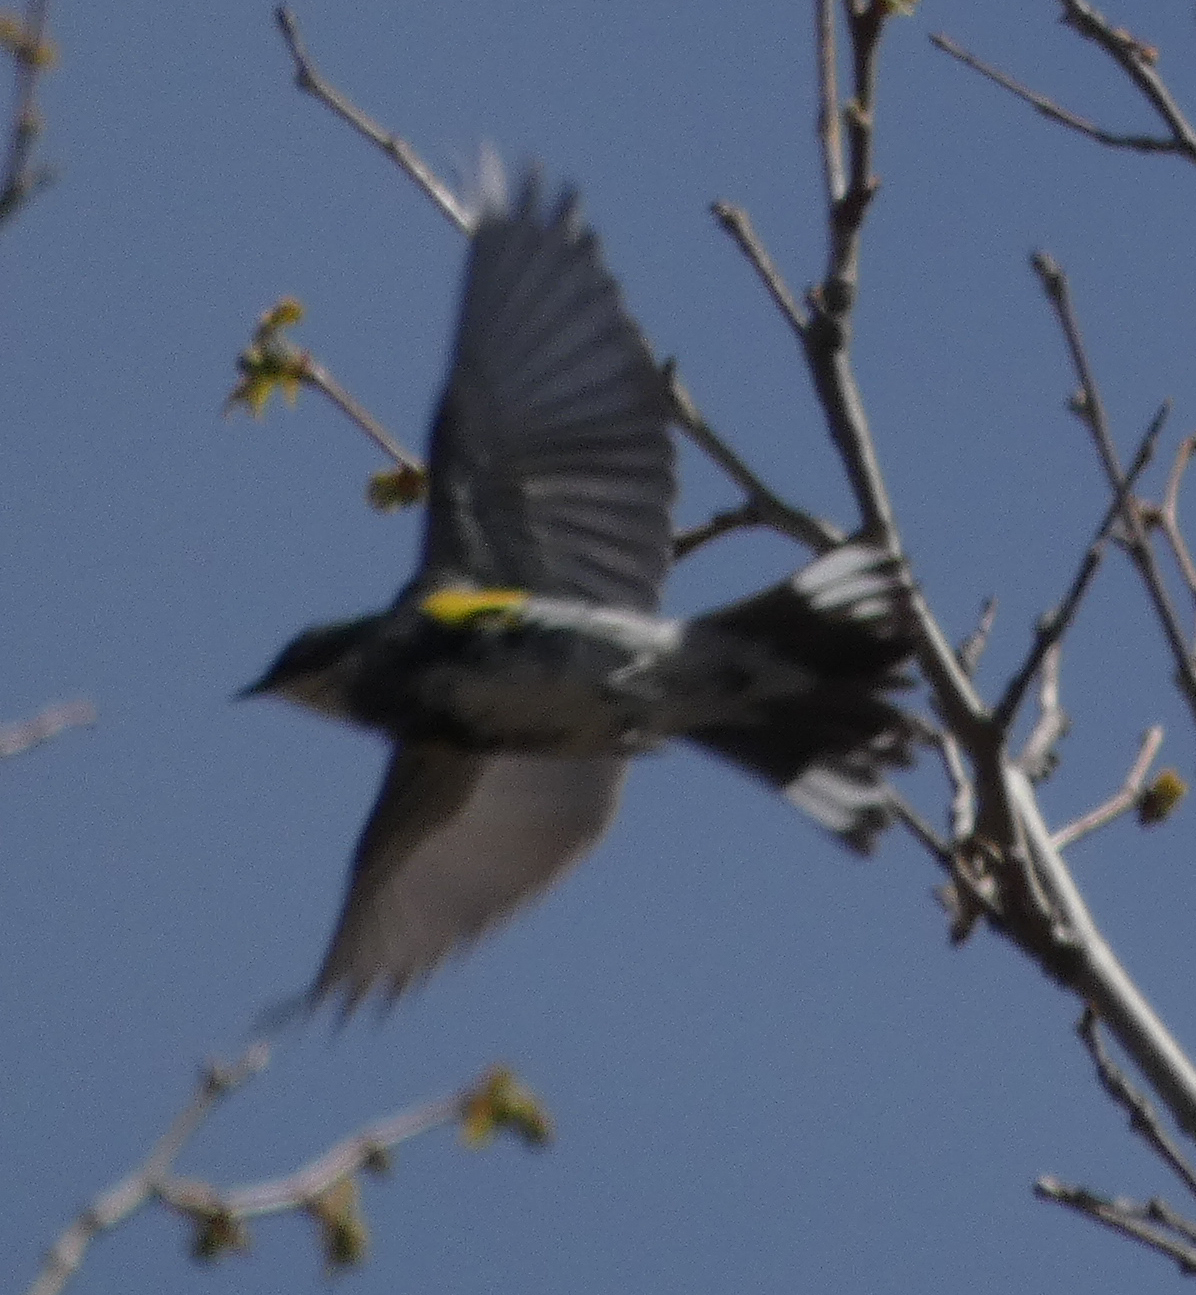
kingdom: Animalia
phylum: Chordata
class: Aves
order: Passeriformes
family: Parulidae
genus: Setophaga
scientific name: Setophaga coronata
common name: Myrtle warbler
